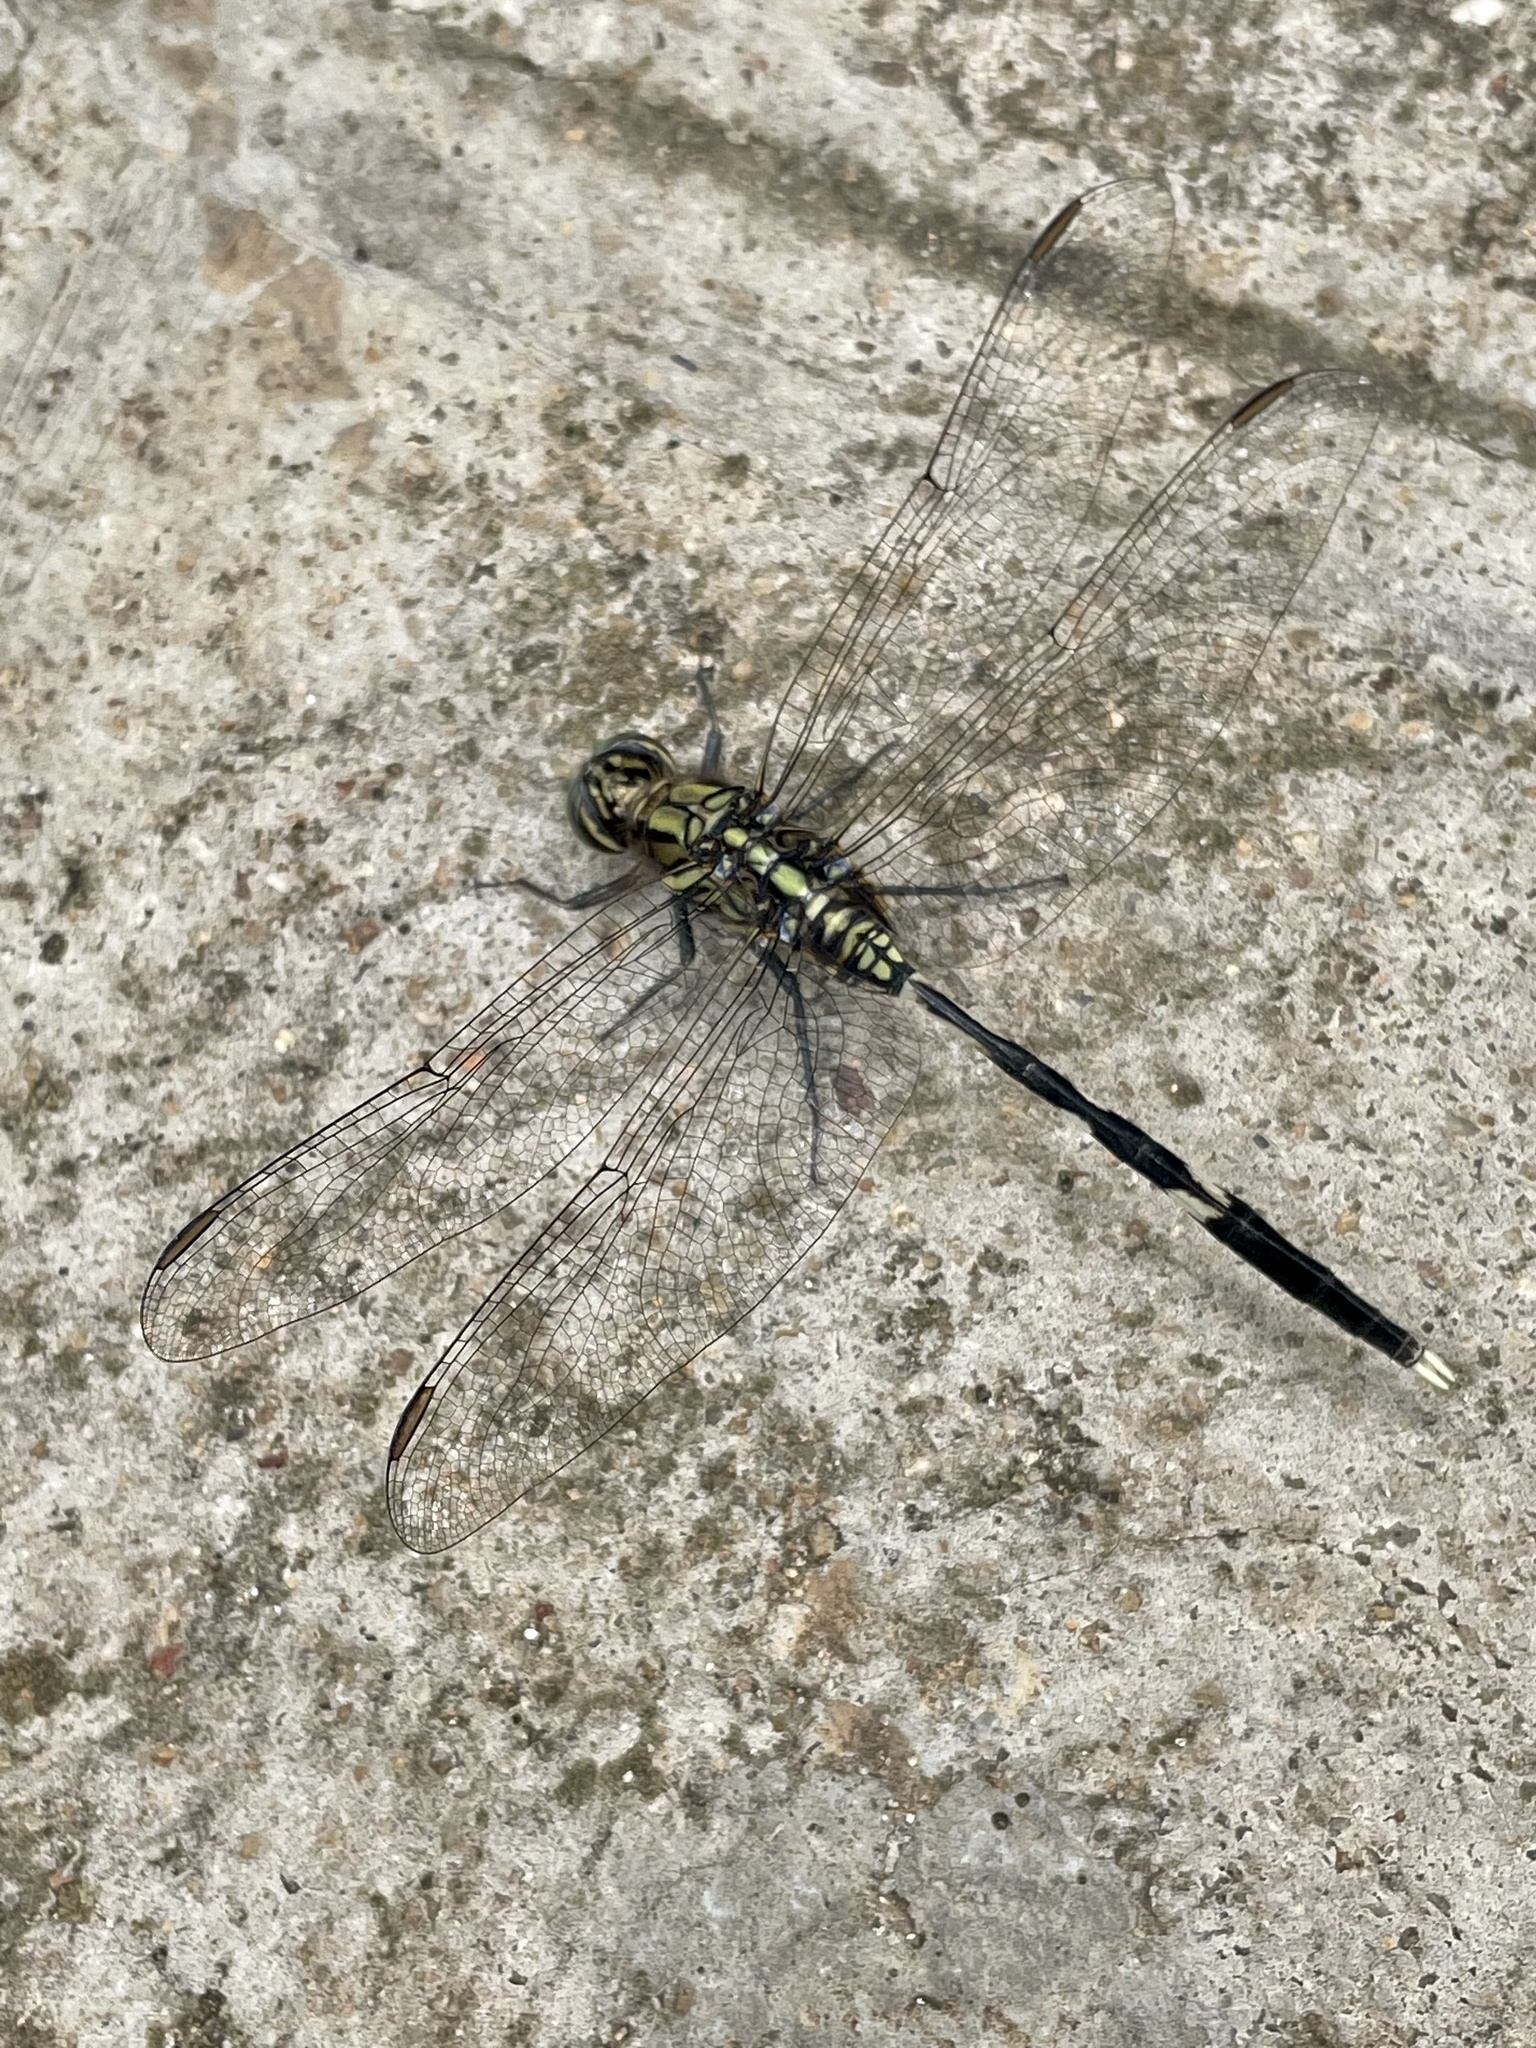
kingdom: Animalia
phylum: Arthropoda
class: Insecta
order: Odonata
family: Libellulidae
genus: Orthetrum
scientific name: Orthetrum sabina
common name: Slender skimmer
